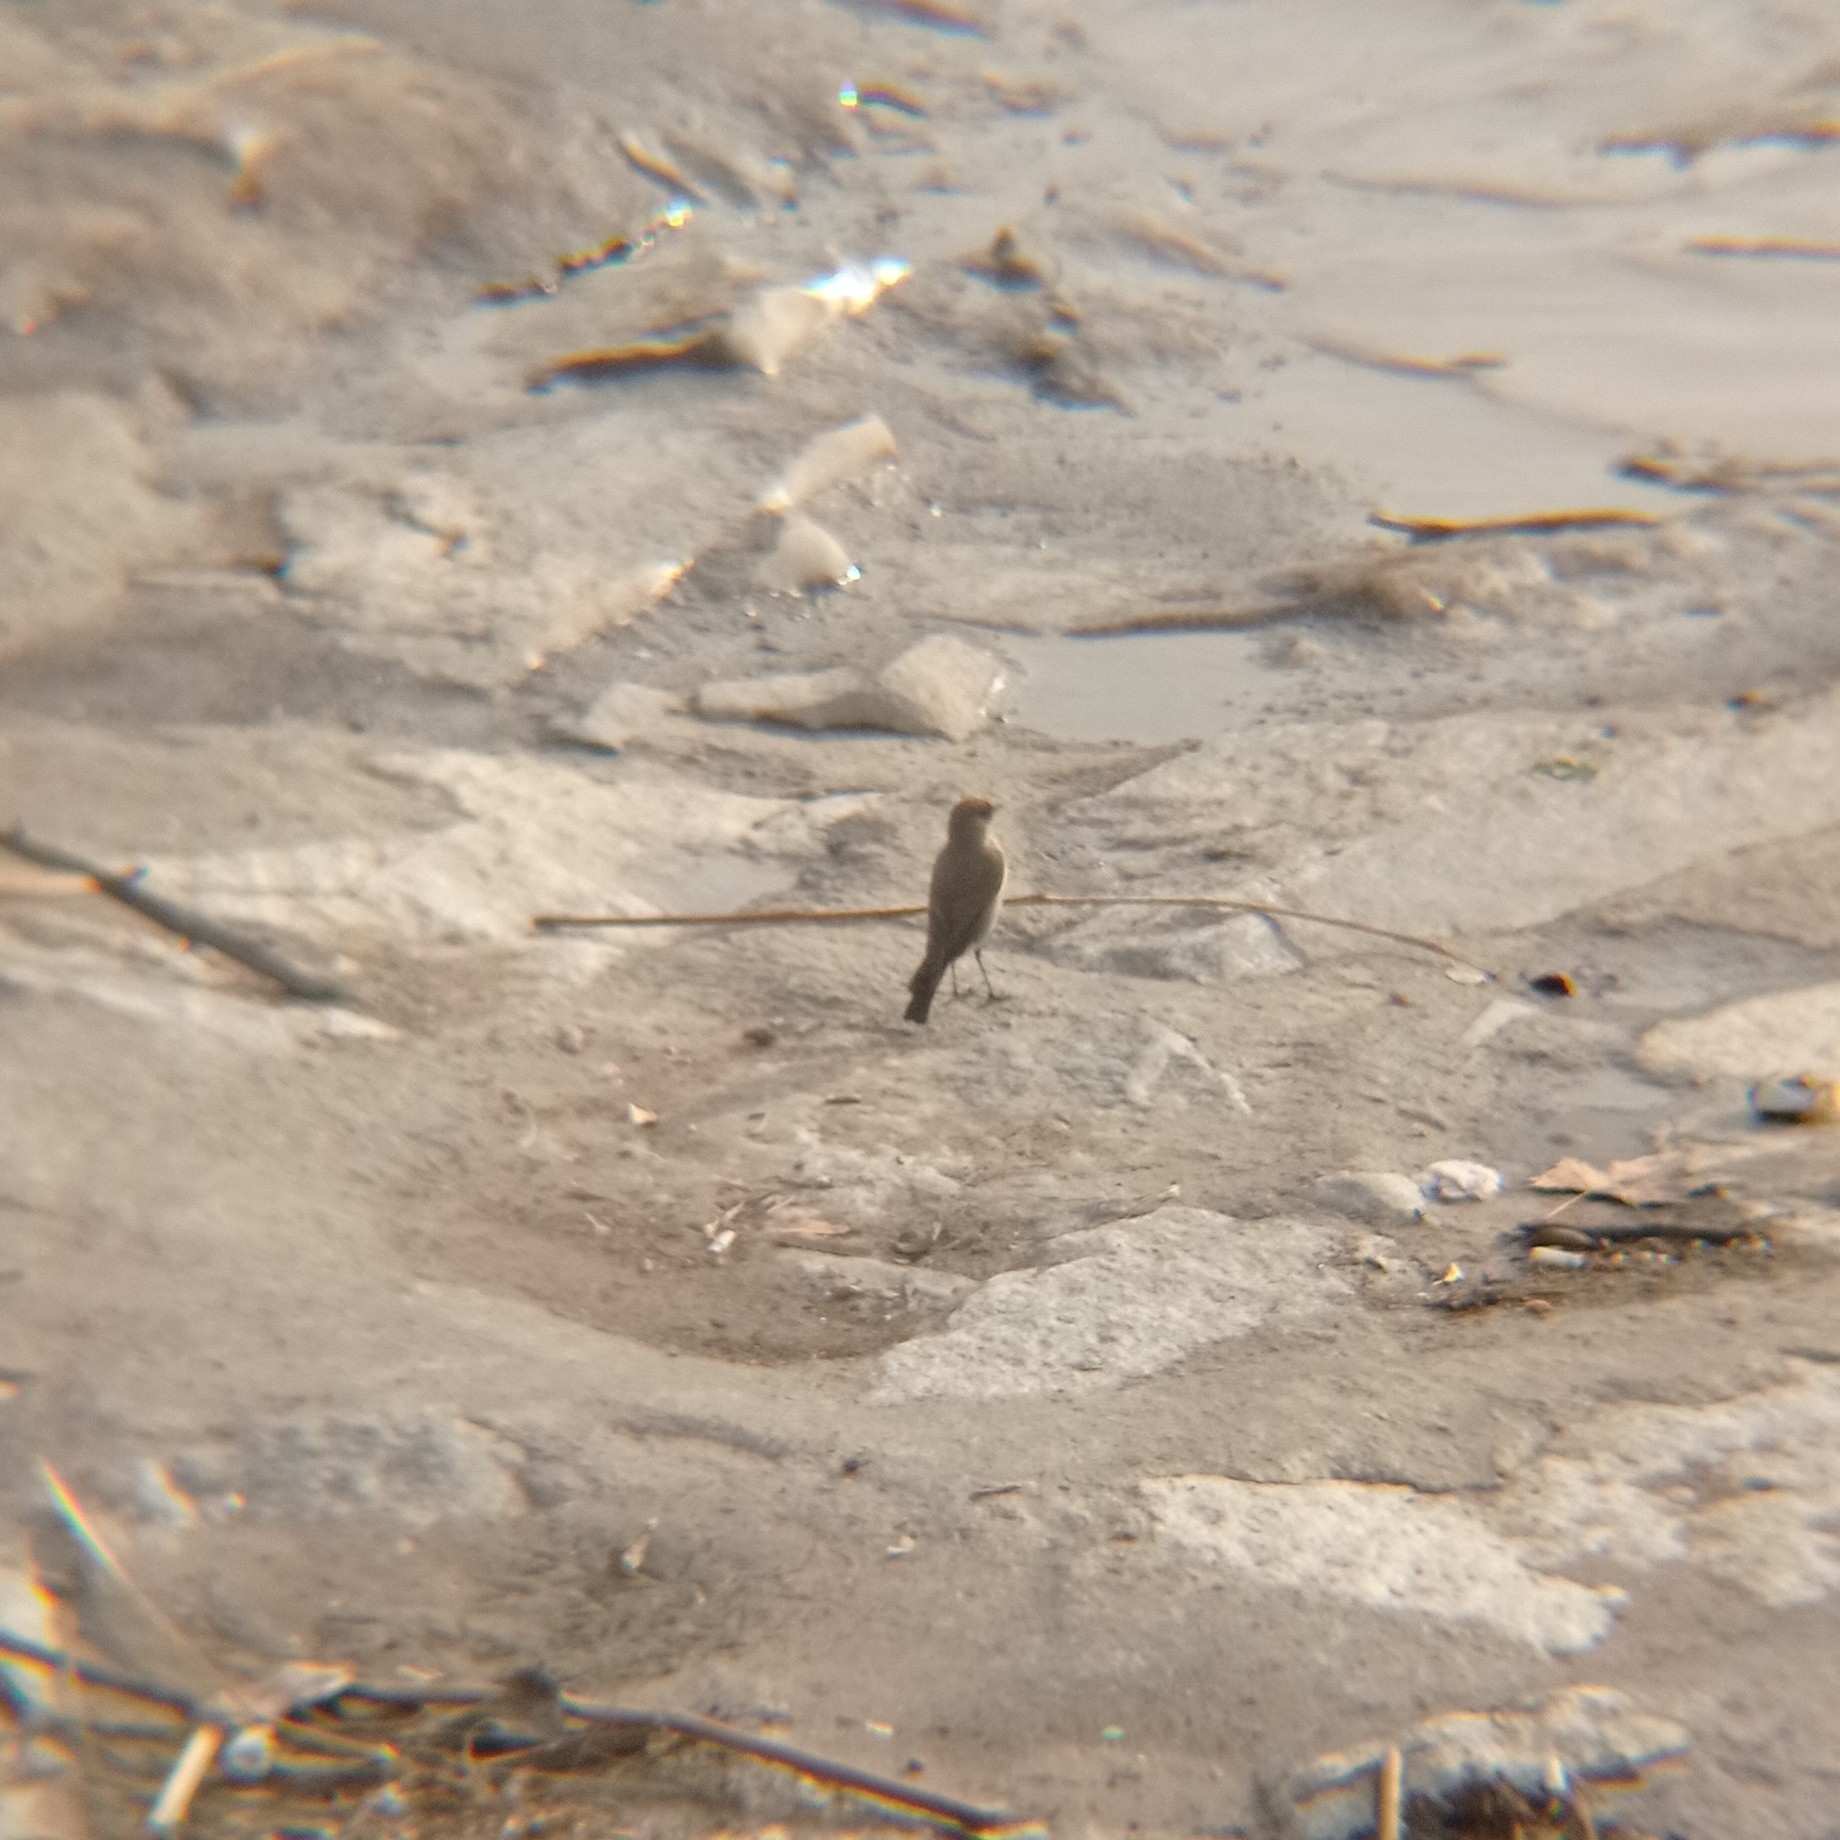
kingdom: Animalia
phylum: Chordata
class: Aves
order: Passeriformes
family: Tyrannidae
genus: Muscisaxicola
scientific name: Muscisaxicola maclovianus
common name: Dark-faced ground tyrant
